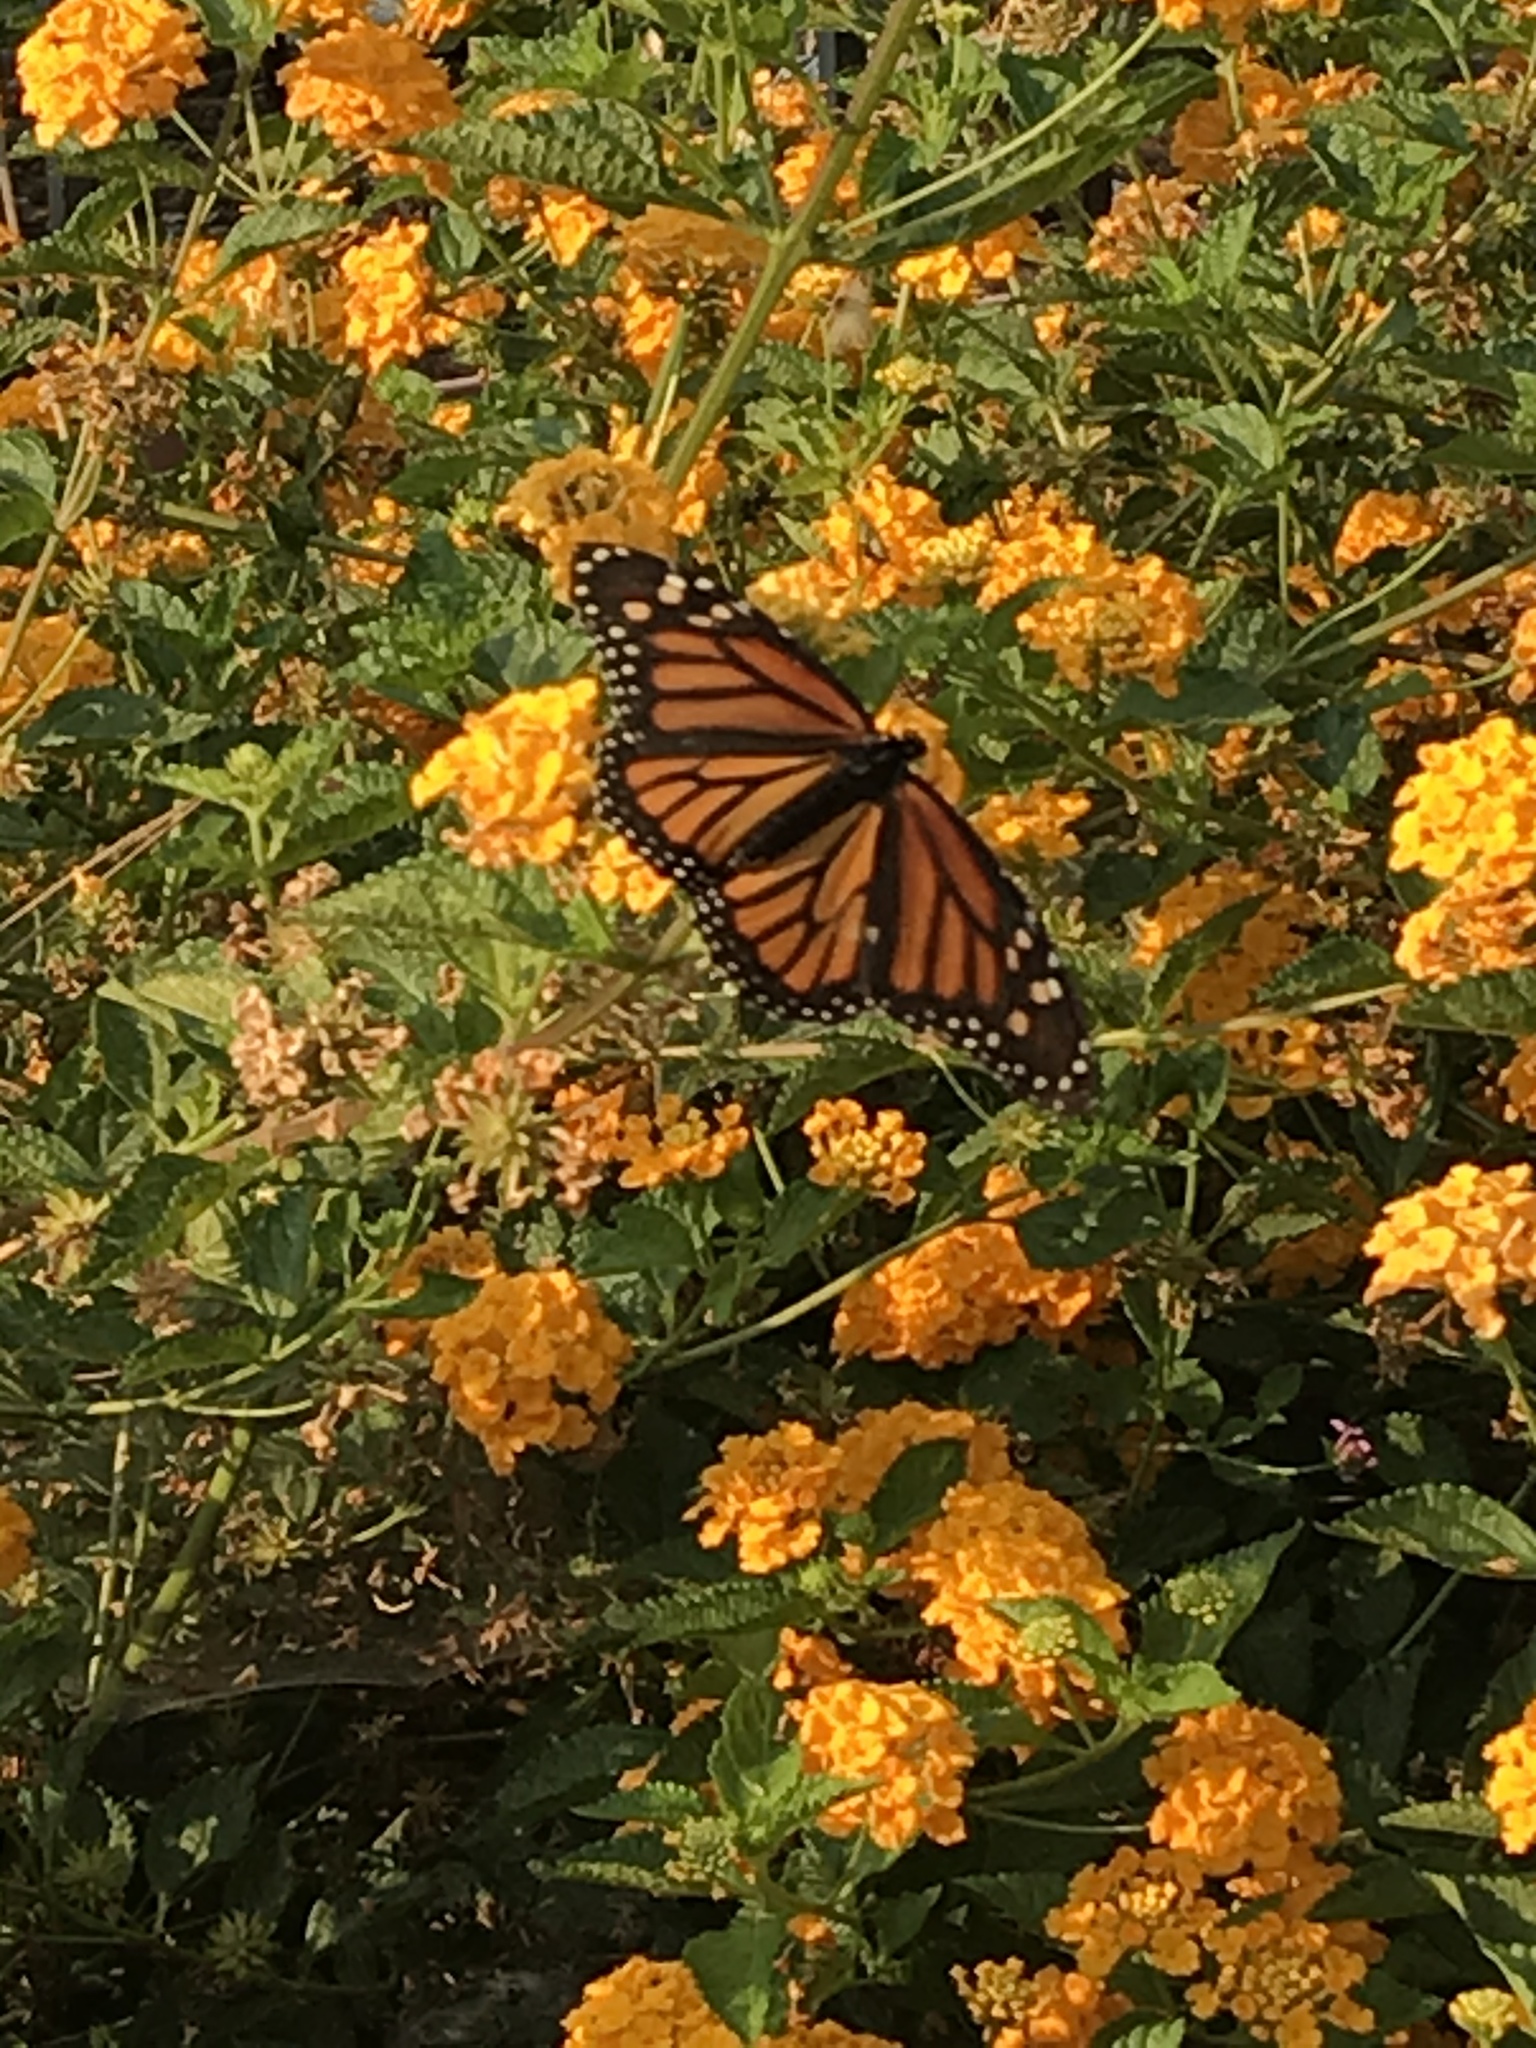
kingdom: Animalia
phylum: Arthropoda
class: Insecta
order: Lepidoptera
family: Nymphalidae
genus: Danaus
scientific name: Danaus plexippus
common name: Monarch
